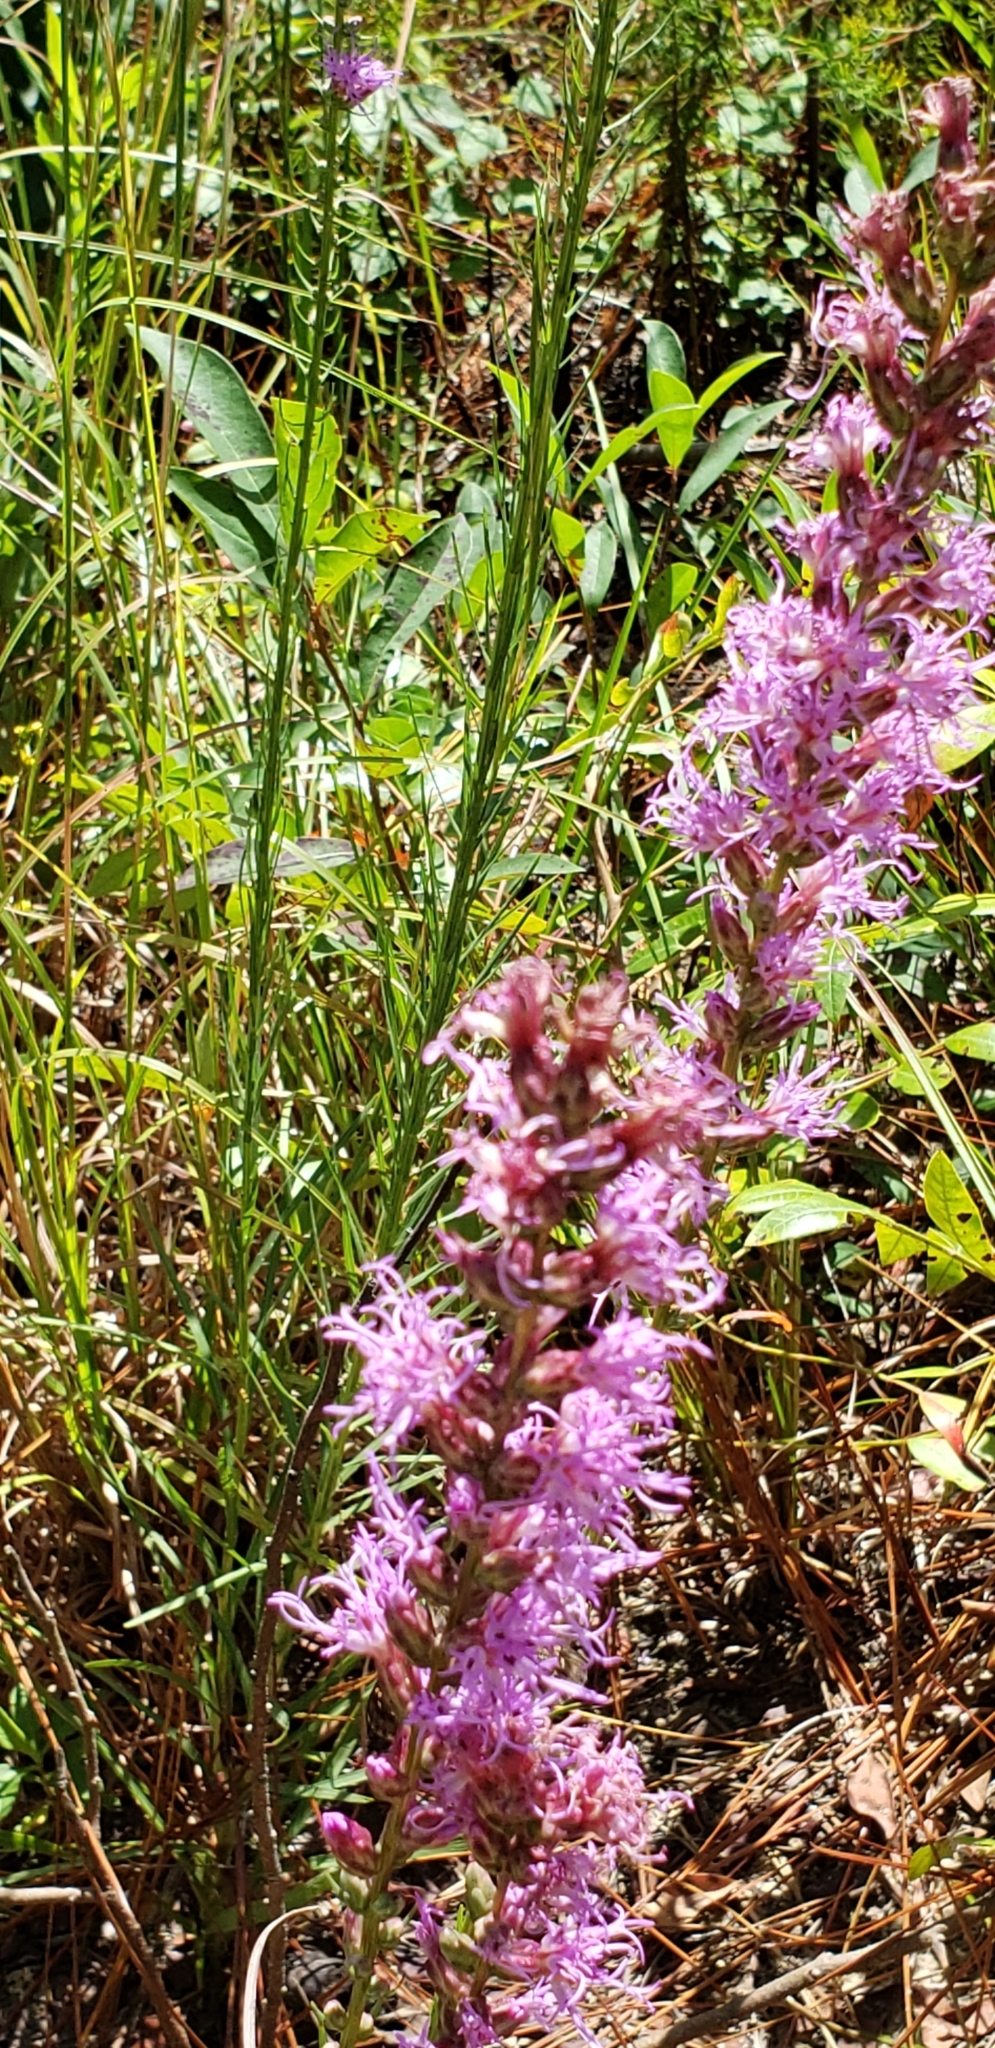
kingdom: Plantae
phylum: Tracheophyta
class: Magnoliopsida
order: Asterales
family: Asteraceae
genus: Liatris
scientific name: Liatris spicata
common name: Florist gayfeather
